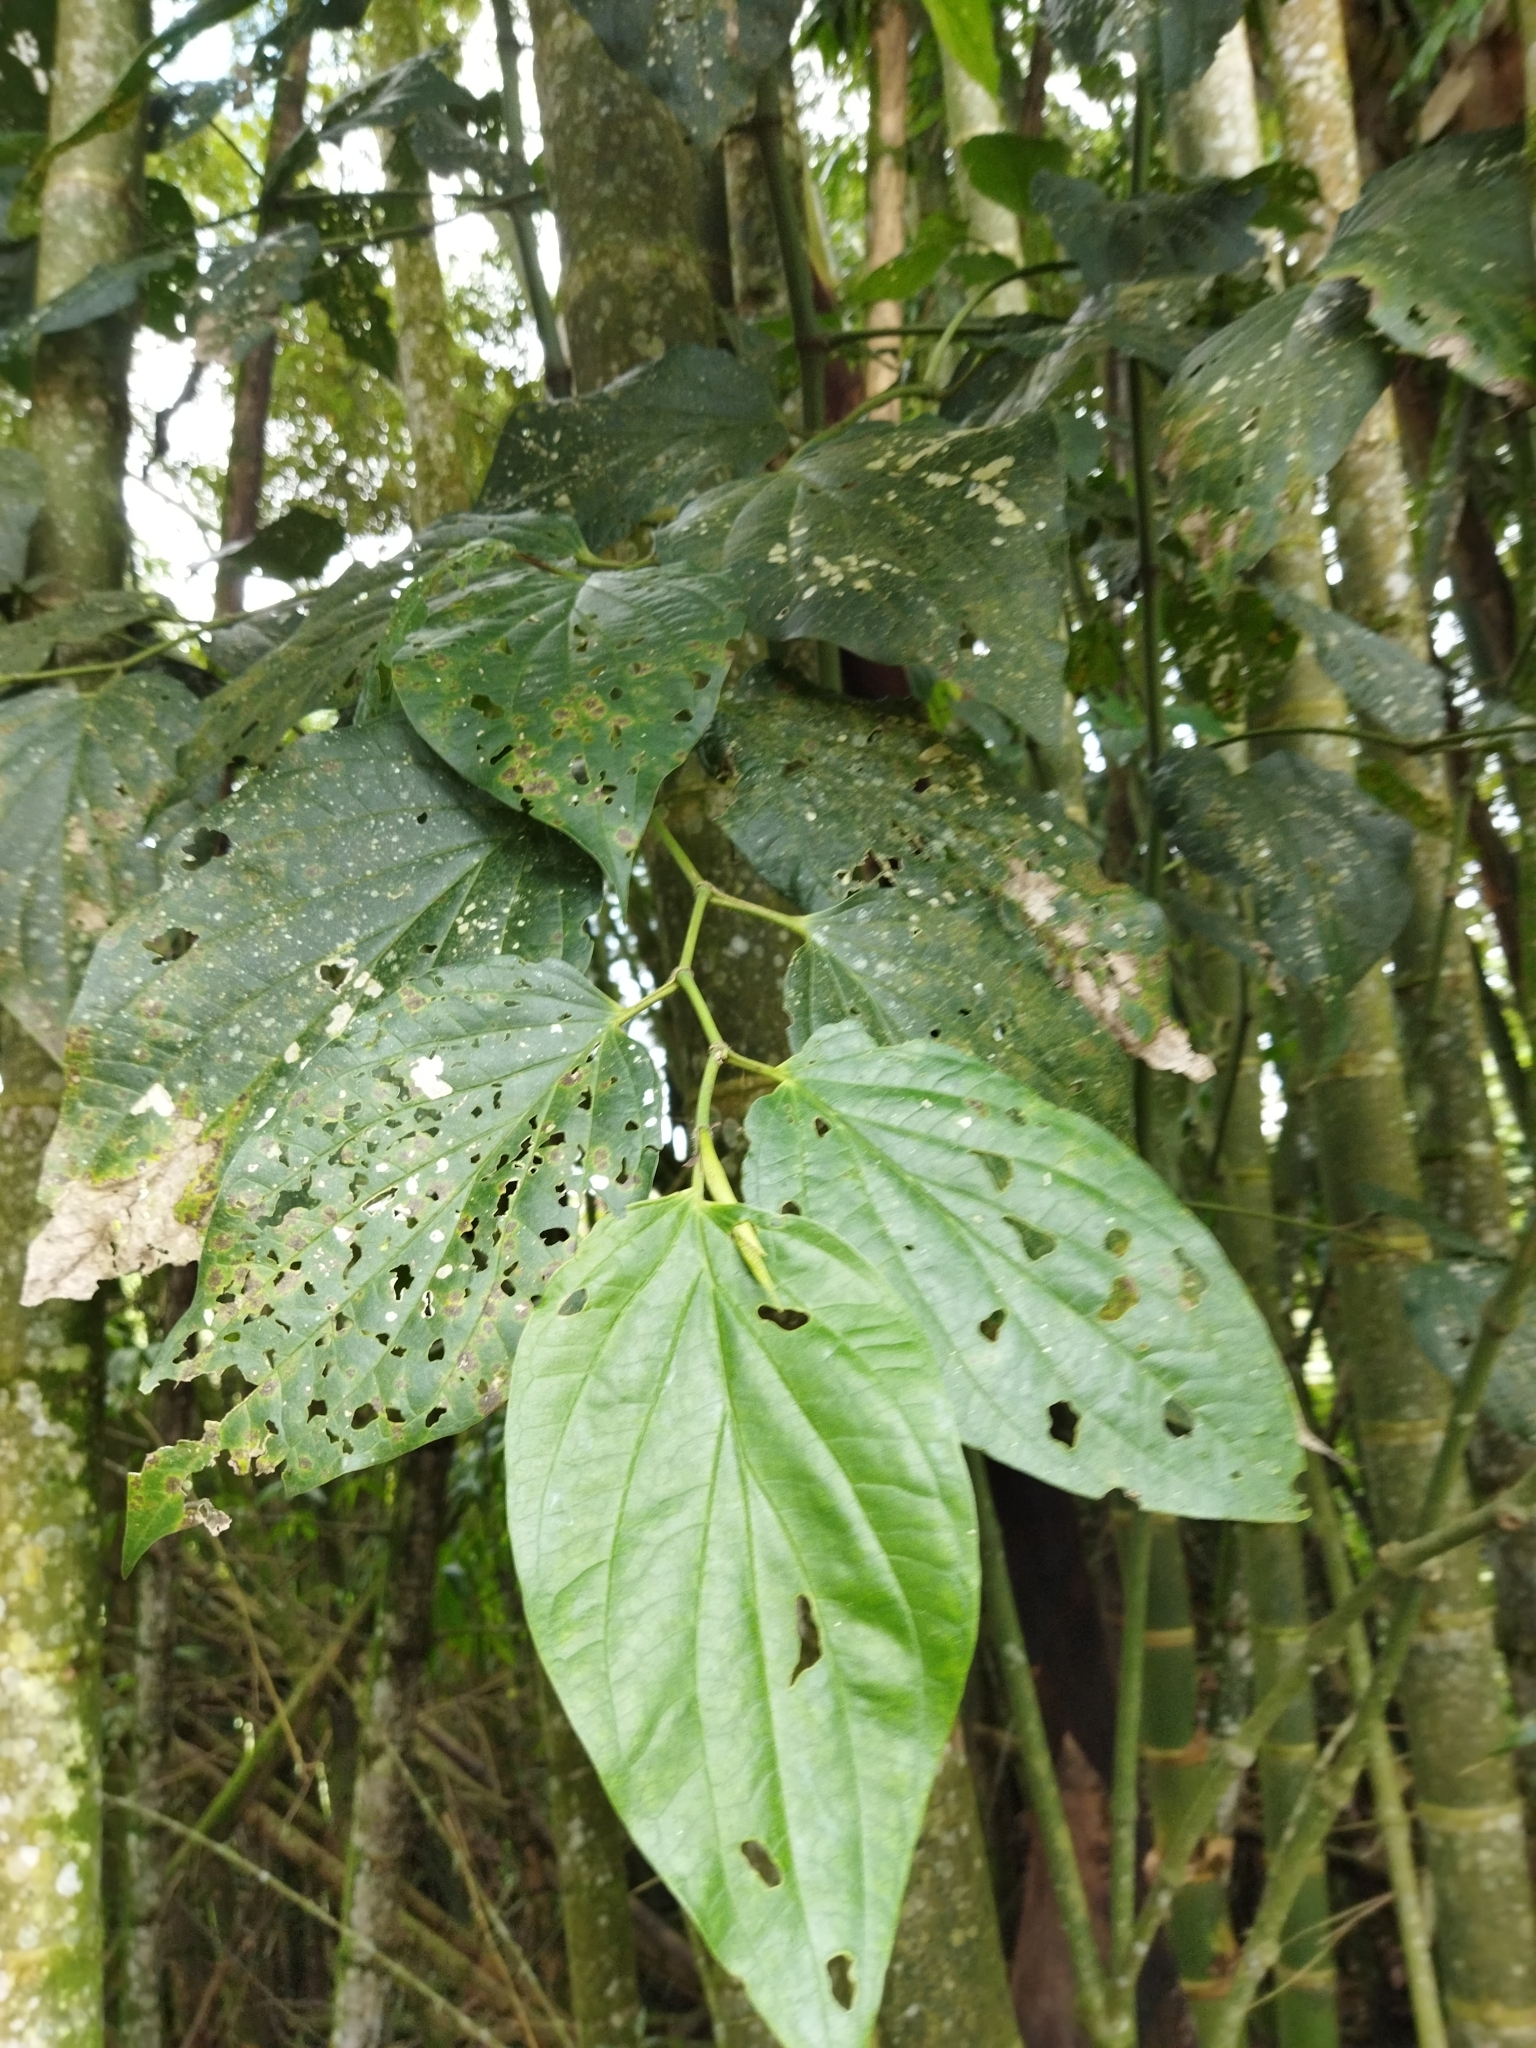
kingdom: Plantae
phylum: Tracheophyta
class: Magnoliopsida
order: Piperales
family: Piperaceae
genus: Piper
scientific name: Piper crassinervium
